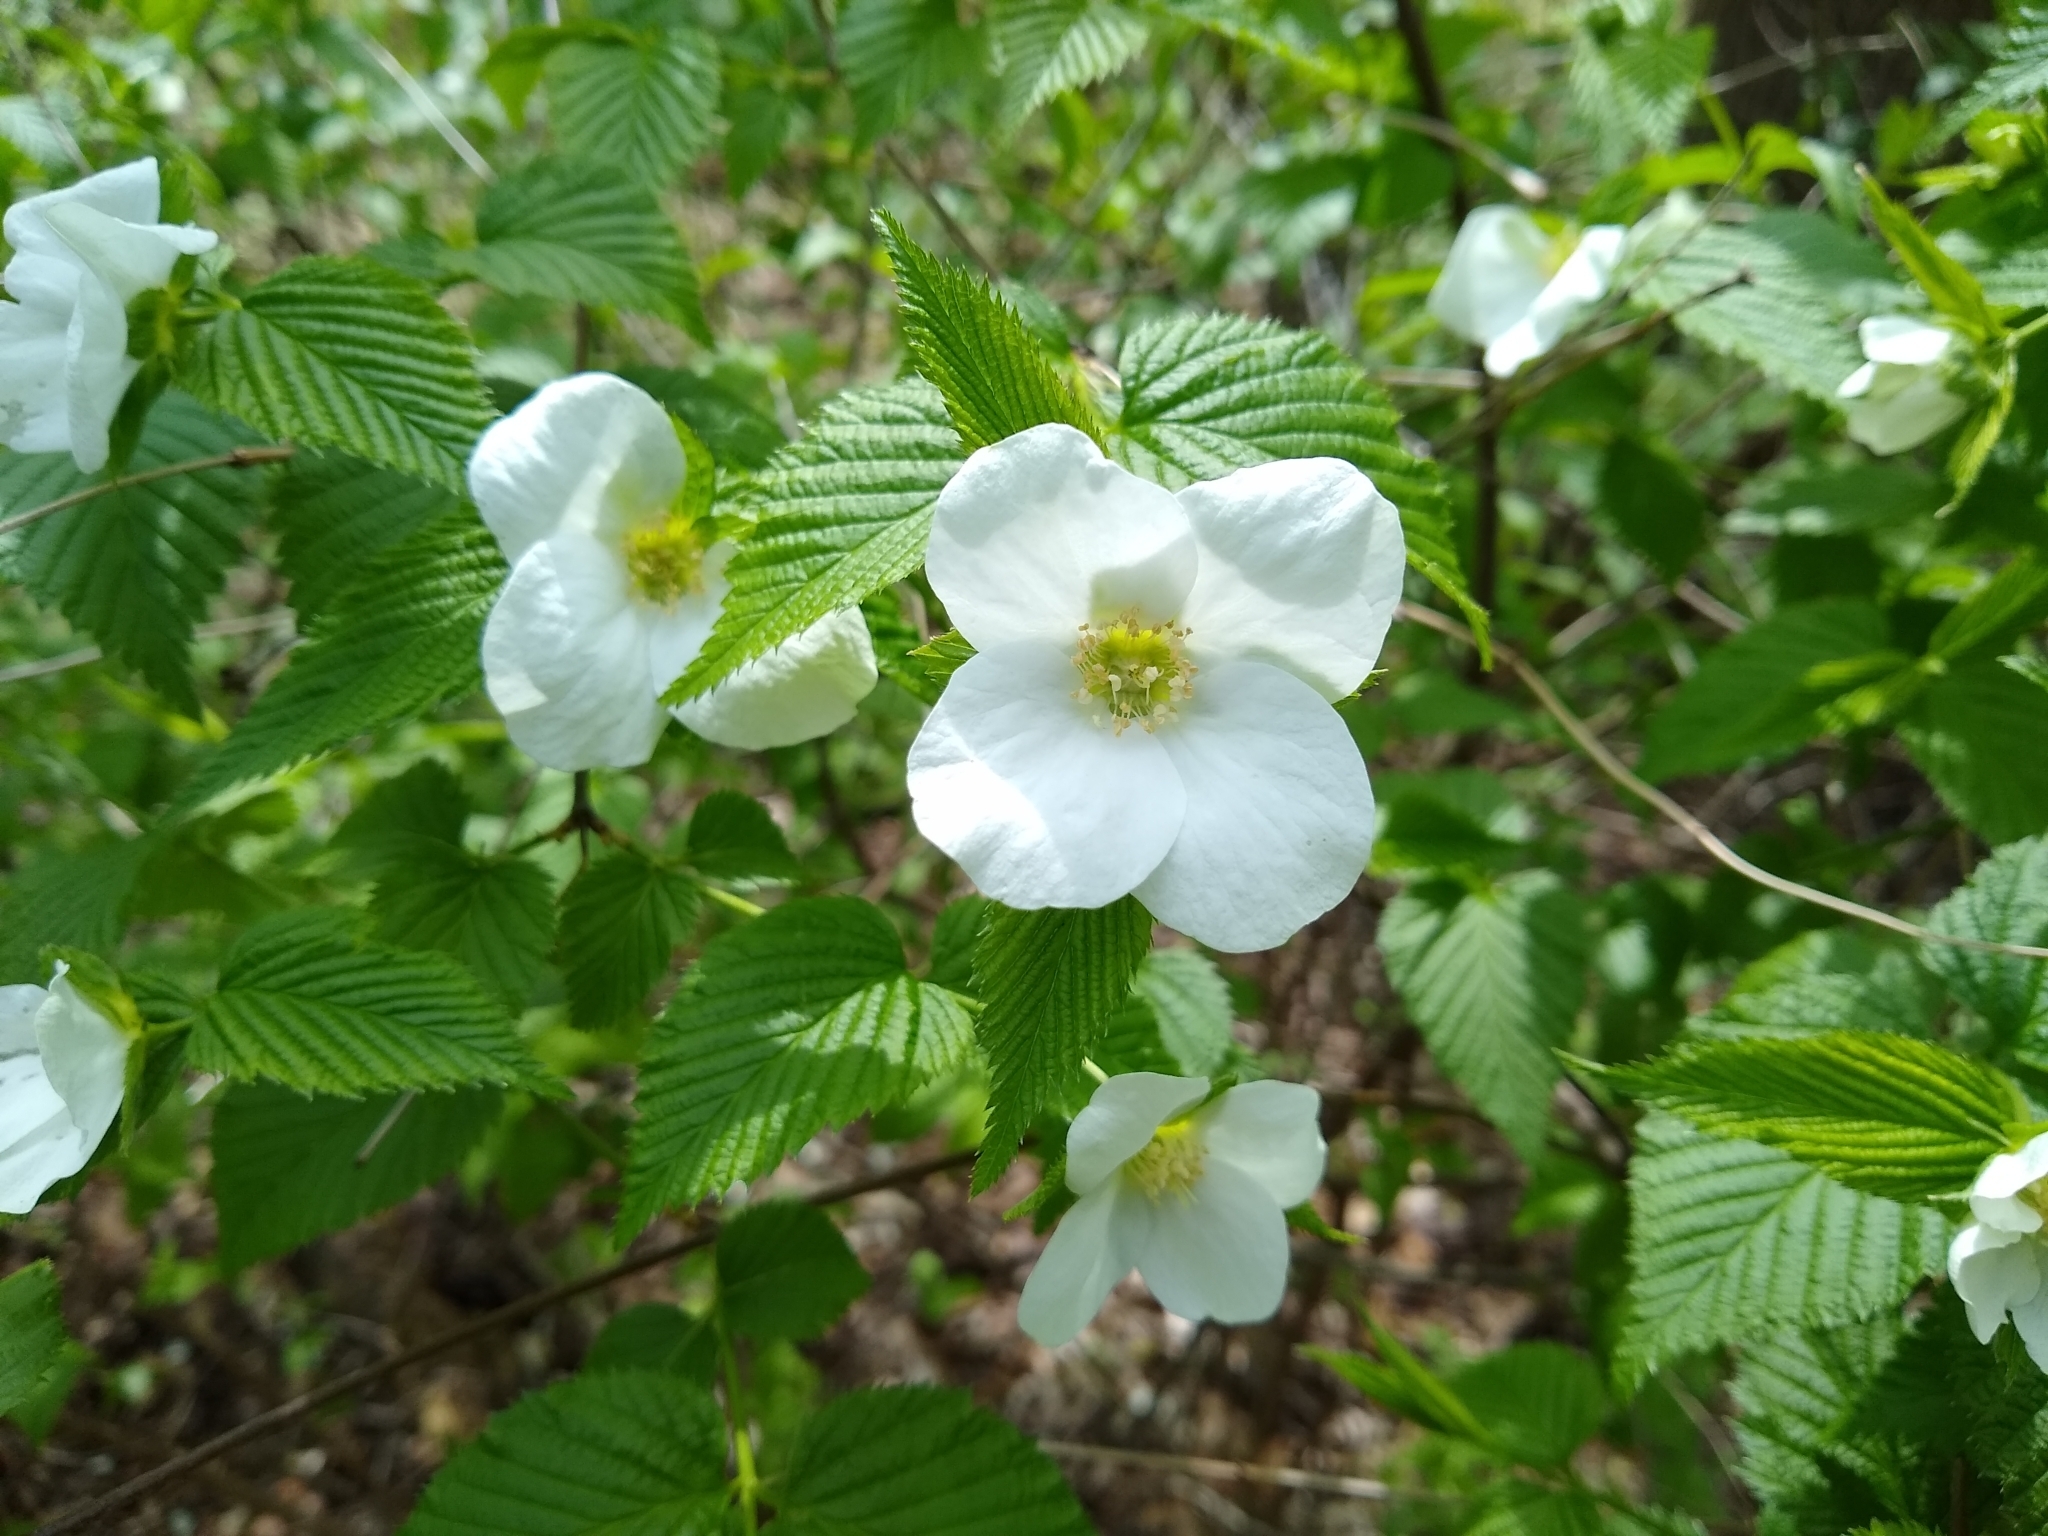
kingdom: Plantae
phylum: Tracheophyta
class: Magnoliopsida
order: Rosales
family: Rosaceae
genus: Rhodotypos
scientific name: Rhodotypos scandens
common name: Jetbead
